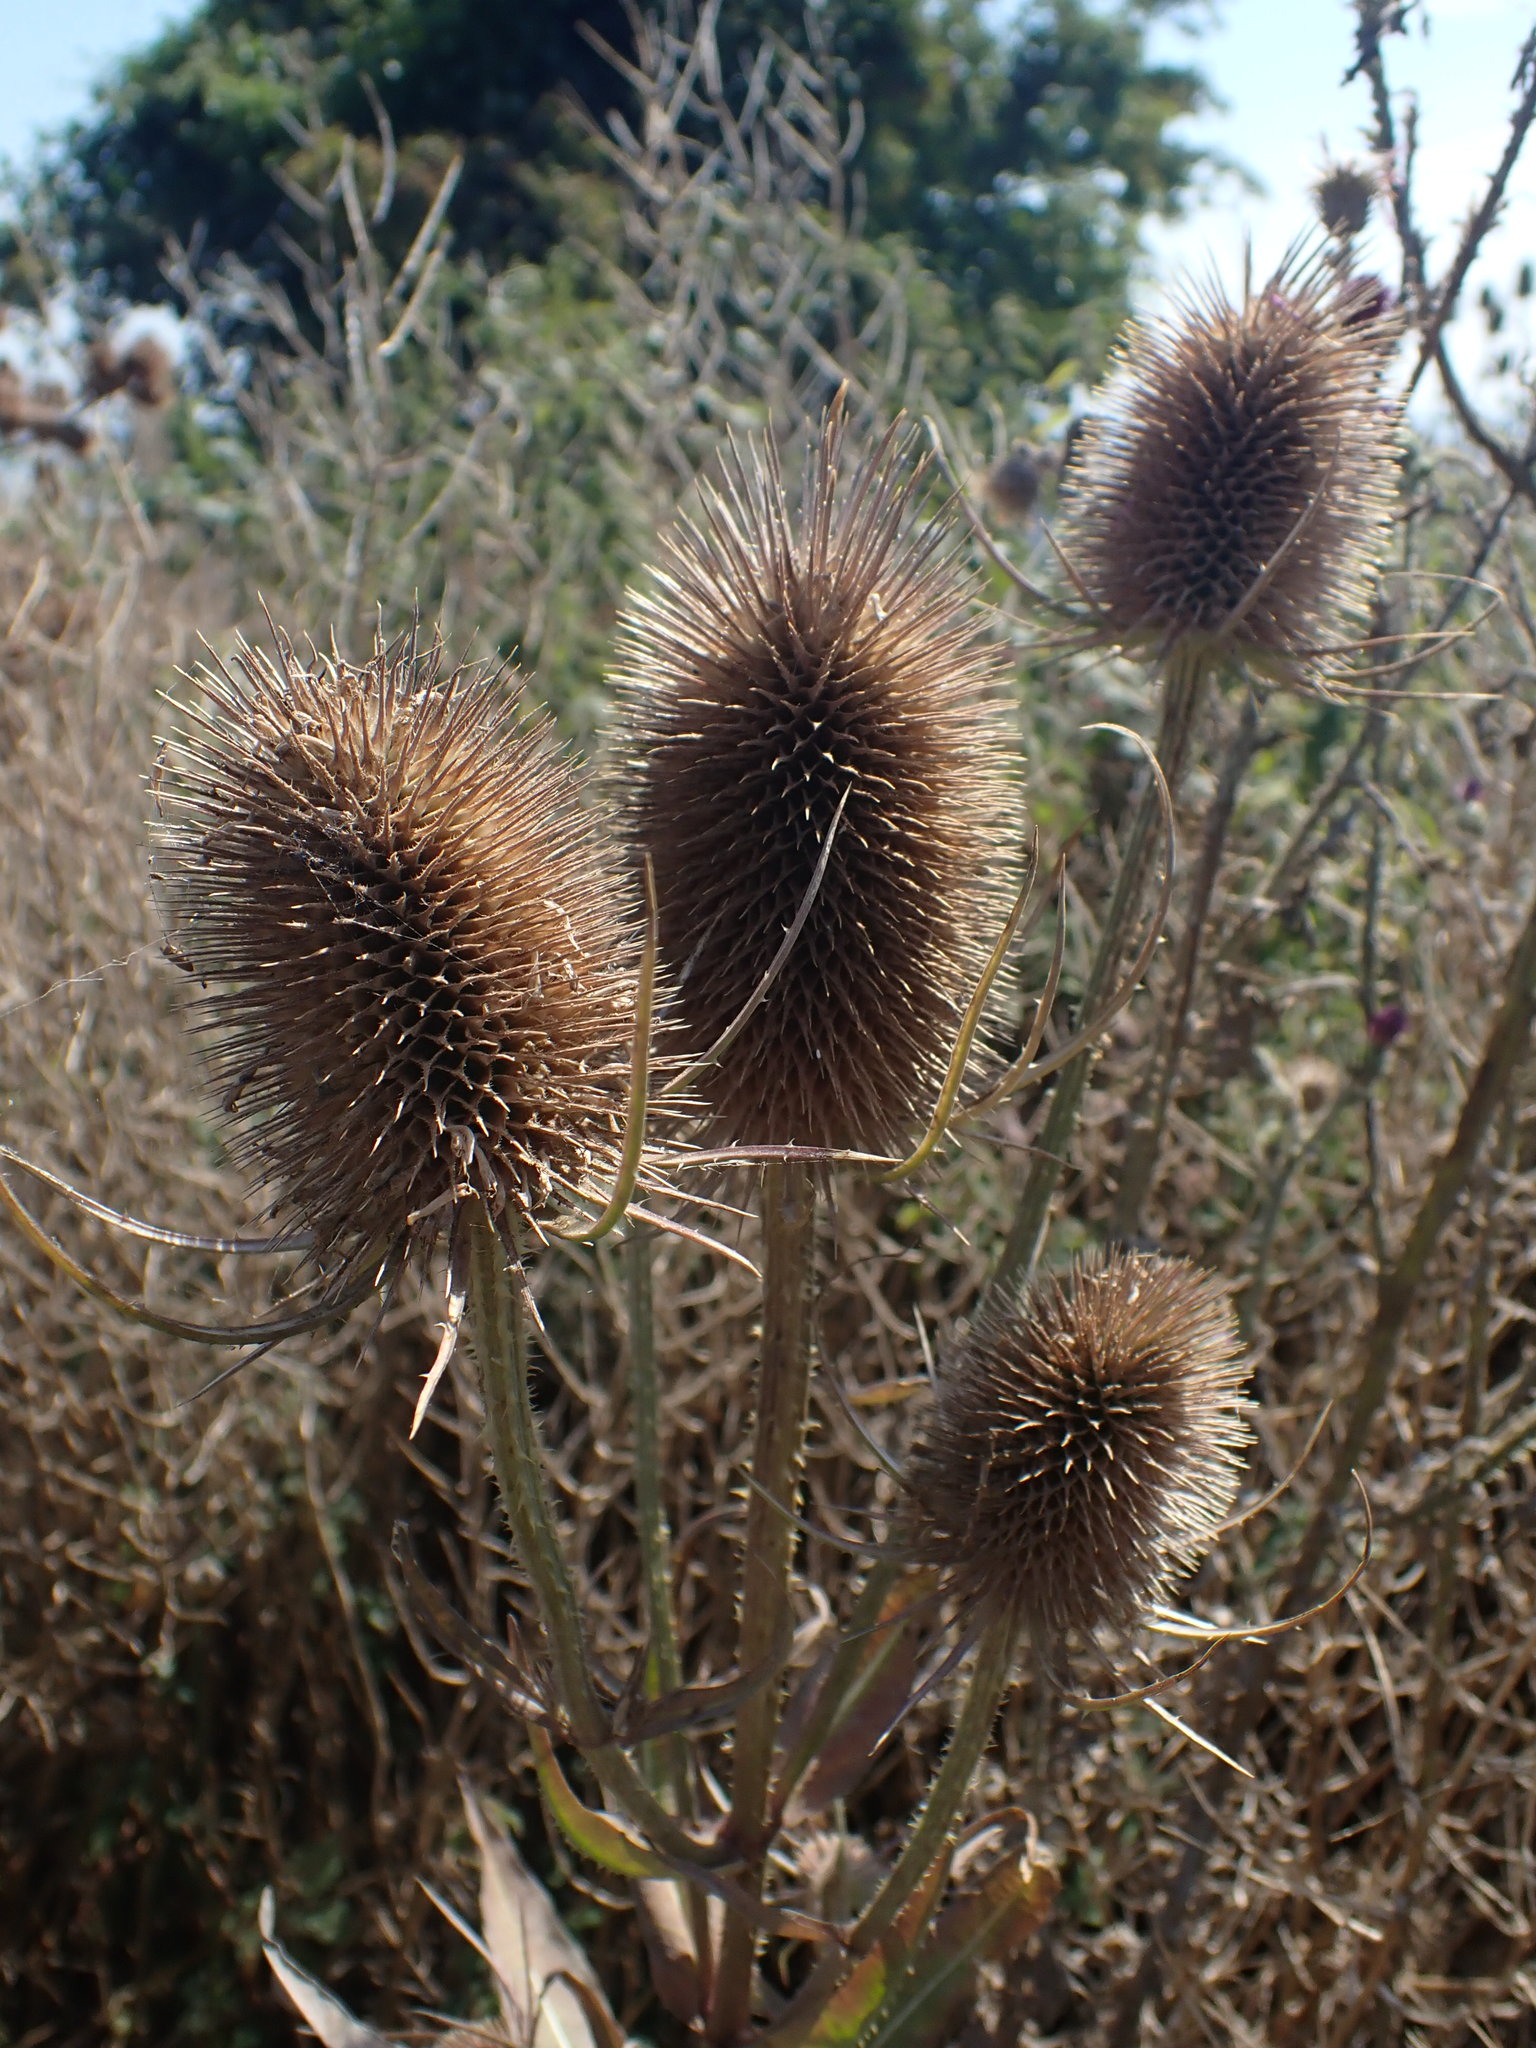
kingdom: Plantae
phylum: Tracheophyta
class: Magnoliopsida
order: Dipsacales
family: Caprifoliaceae
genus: Dipsacus
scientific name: Dipsacus fullonum
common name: Teasel
